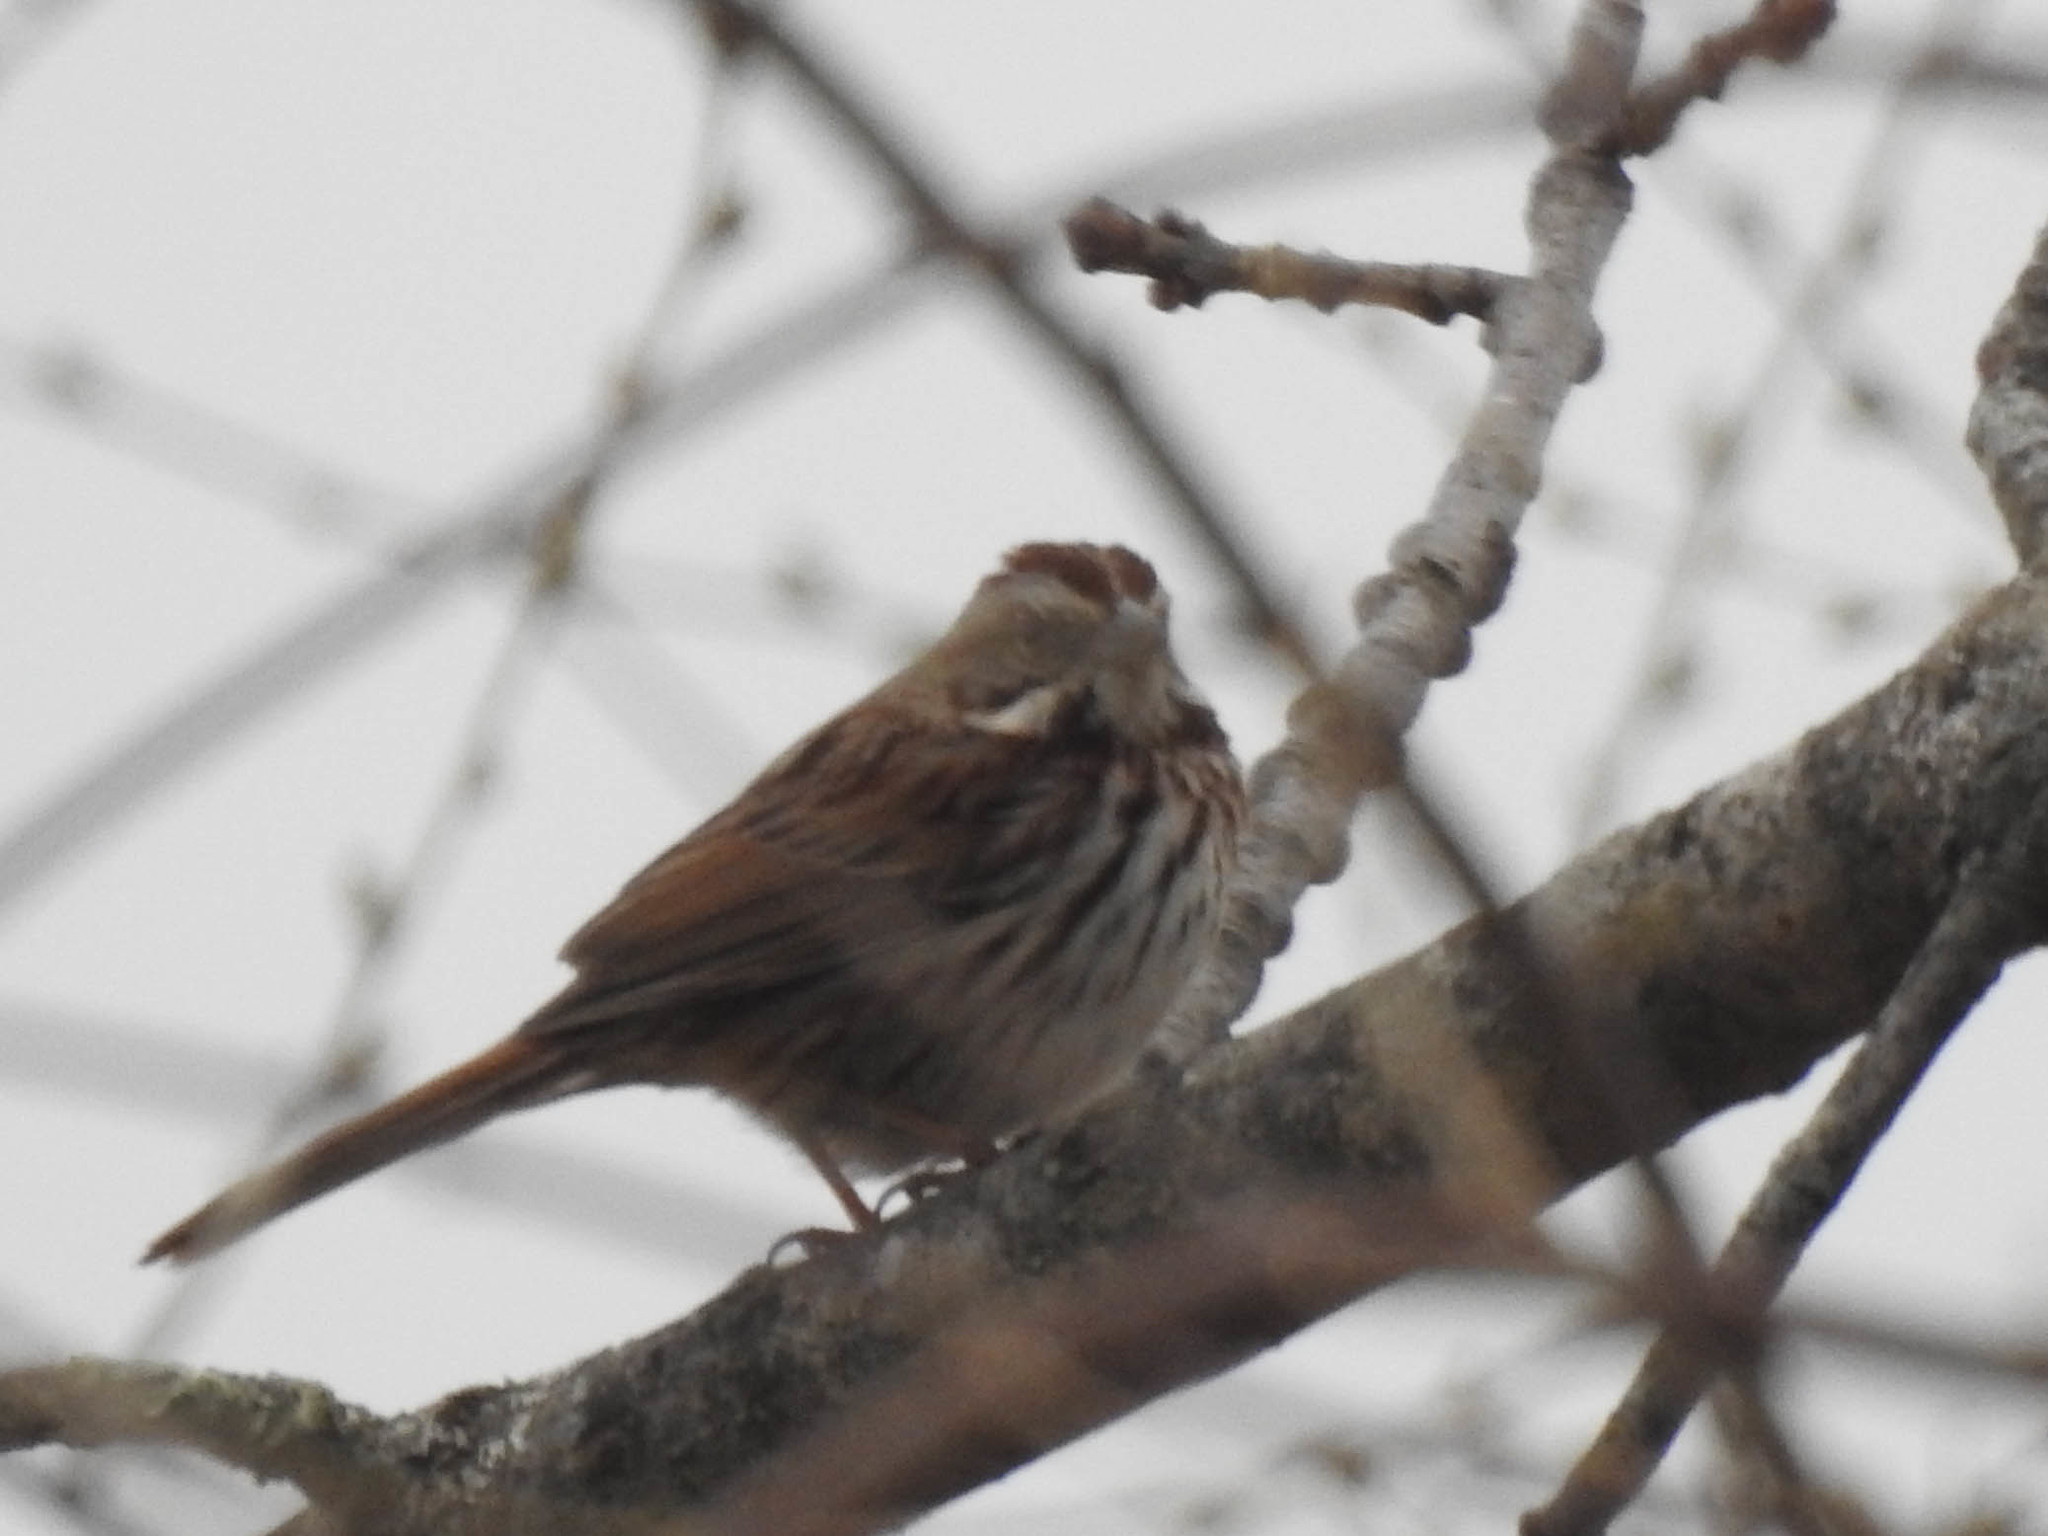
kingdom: Animalia
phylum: Chordata
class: Aves
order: Passeriformes
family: Passerellidae
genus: Melospiza
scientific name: Melospiza melodia
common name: Song sparrow
